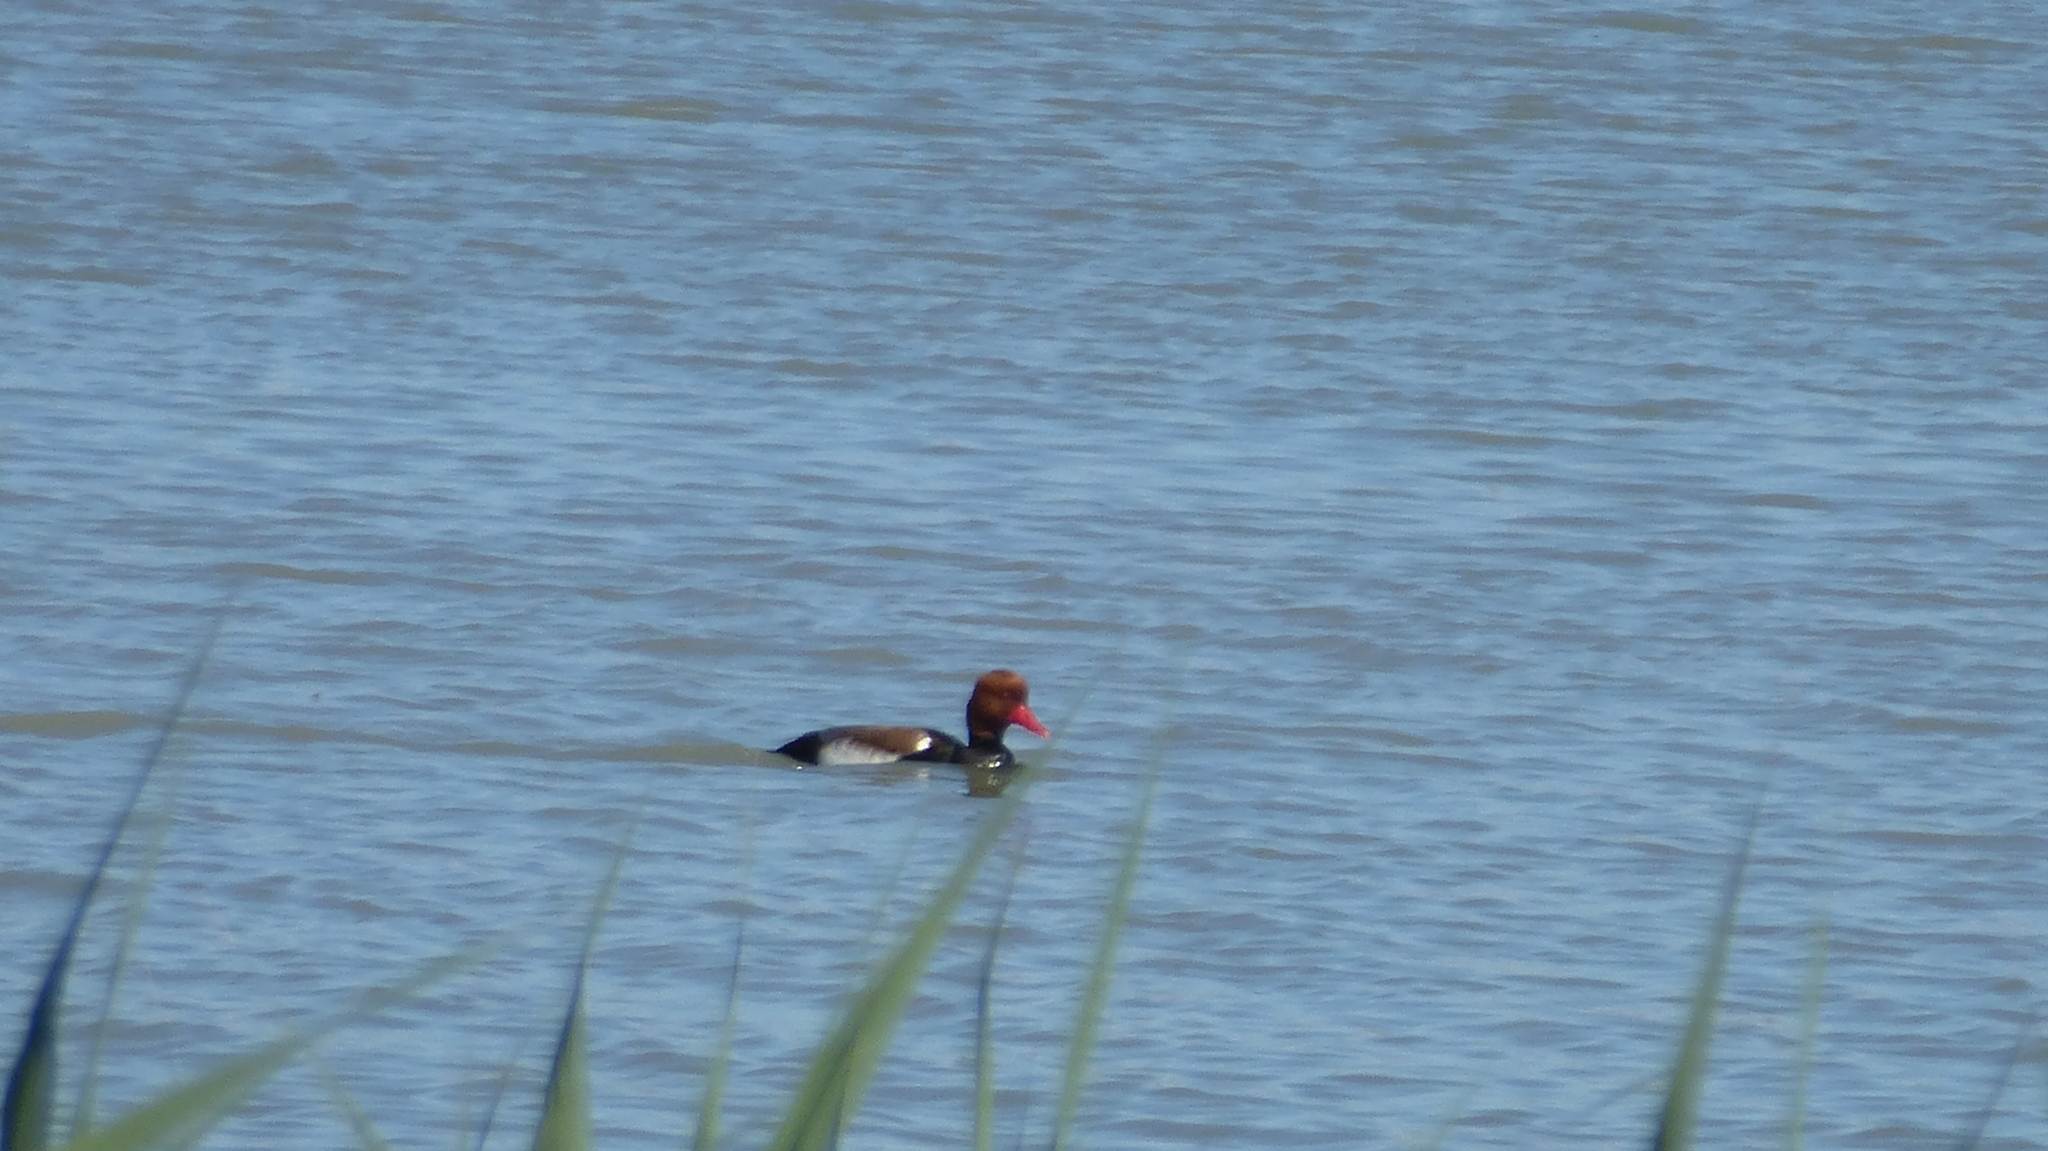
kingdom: Animalia
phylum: Chordata
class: Aves
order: Anseriformes
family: Anatidae
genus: Netta
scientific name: Netta rufina
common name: Red-crested pochard
